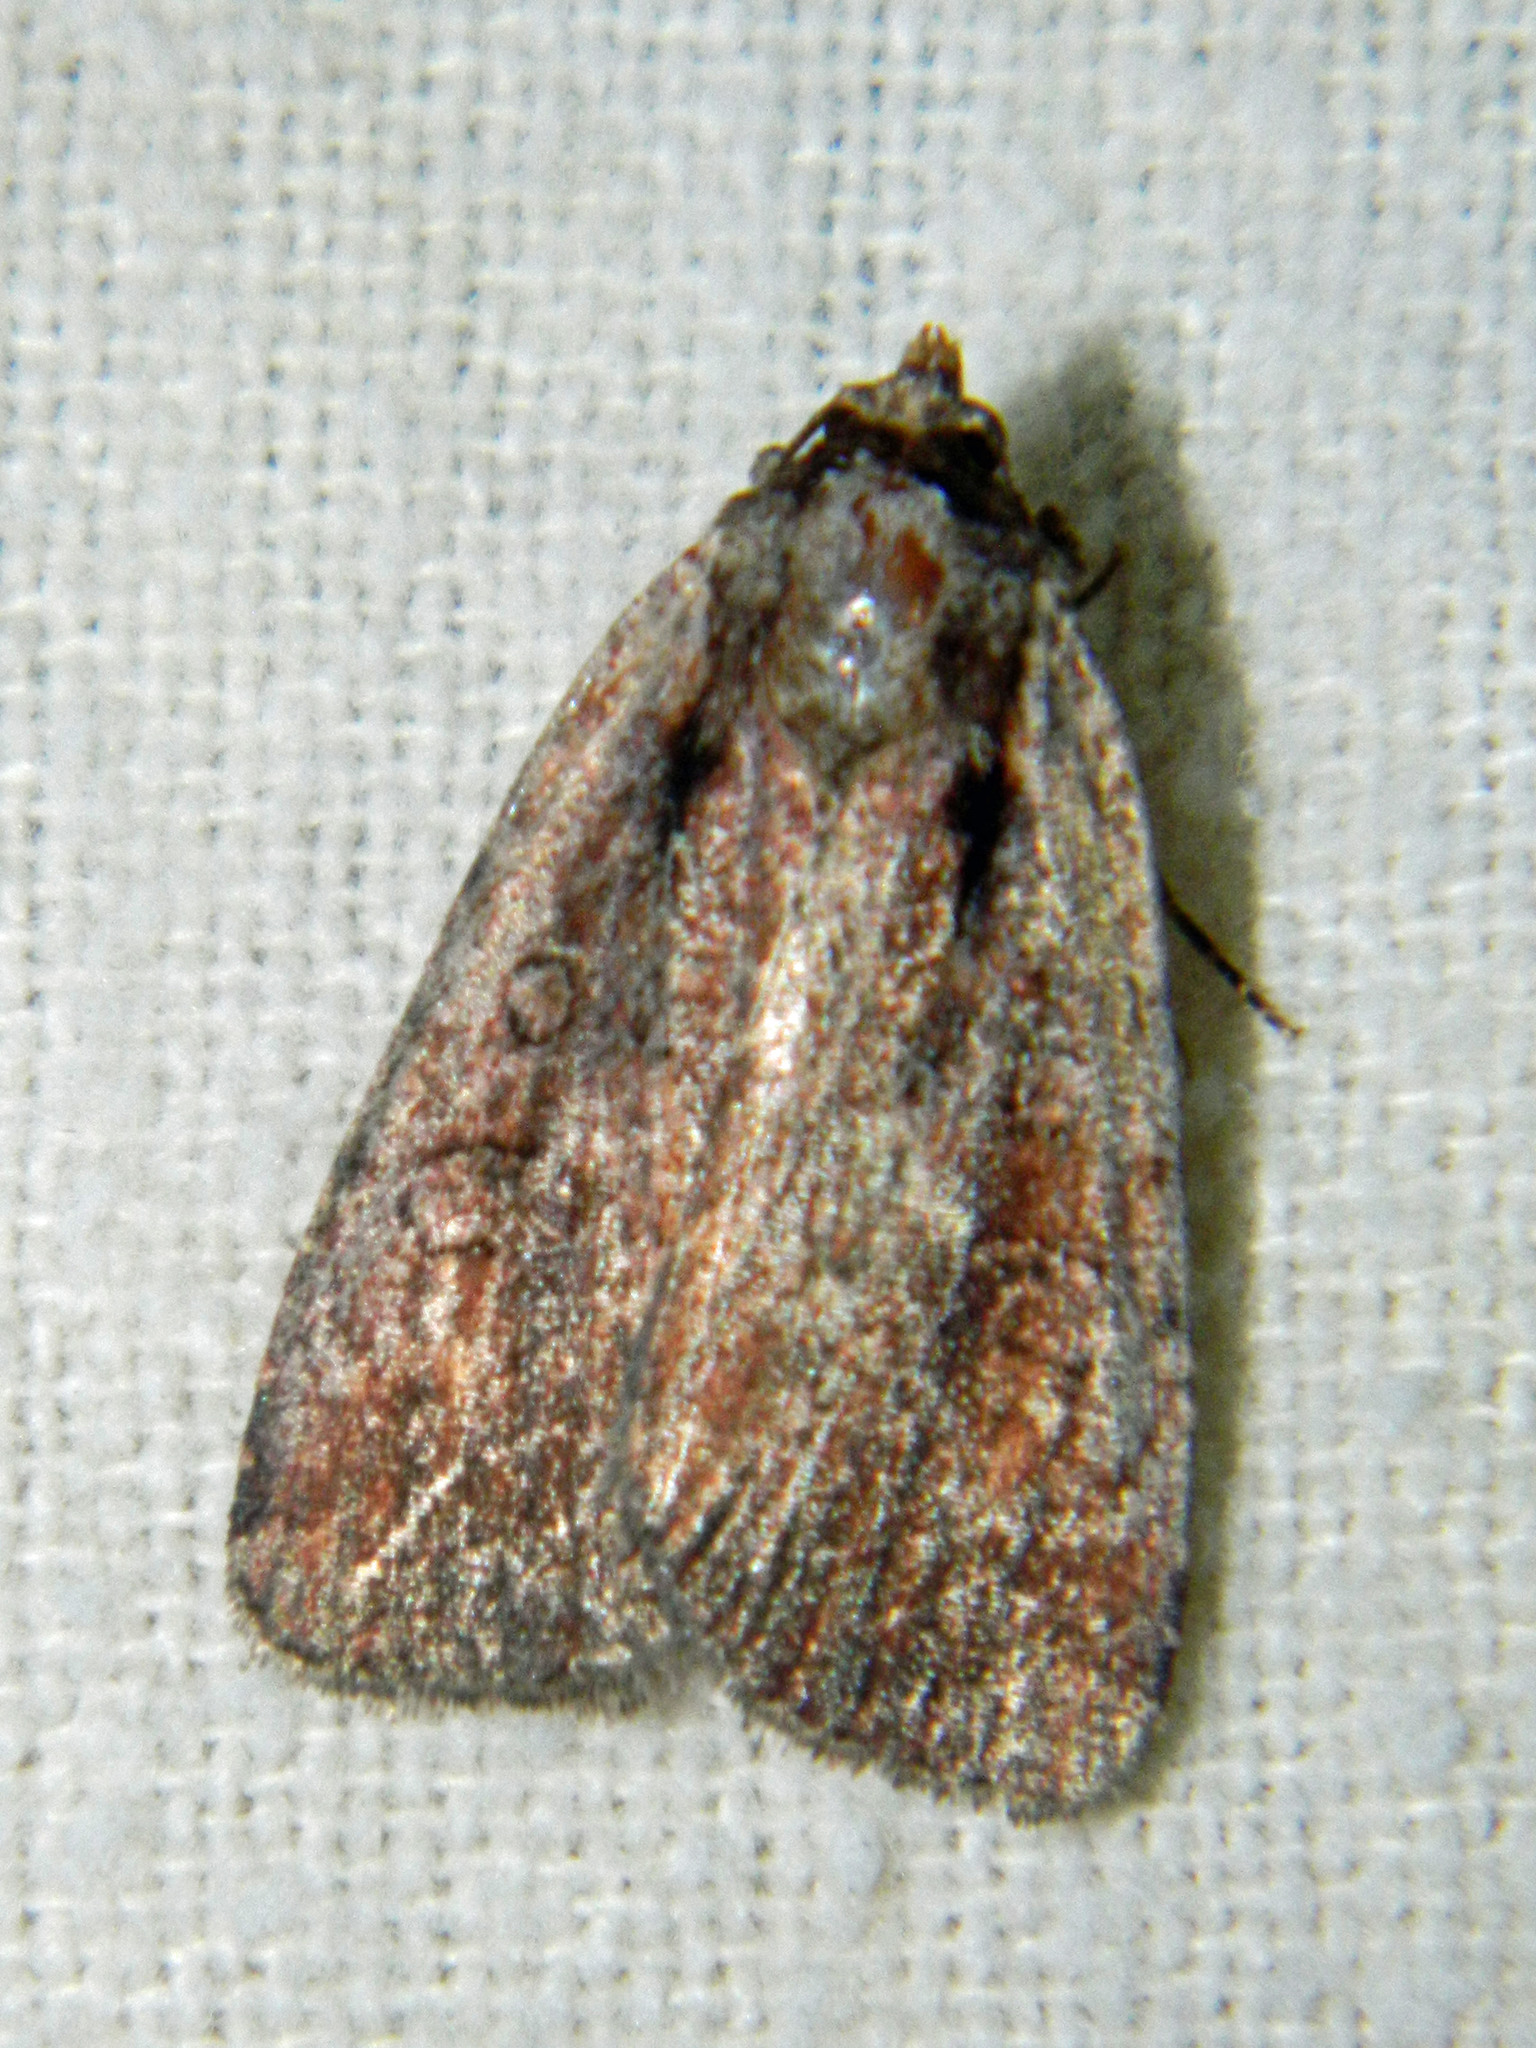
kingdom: Animalia
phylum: Arthropoda
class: Insecta
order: Lepidoptera
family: Noctuidae
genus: Eueretagrotis
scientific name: Eueretagrotis attentus
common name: Attentive dart
